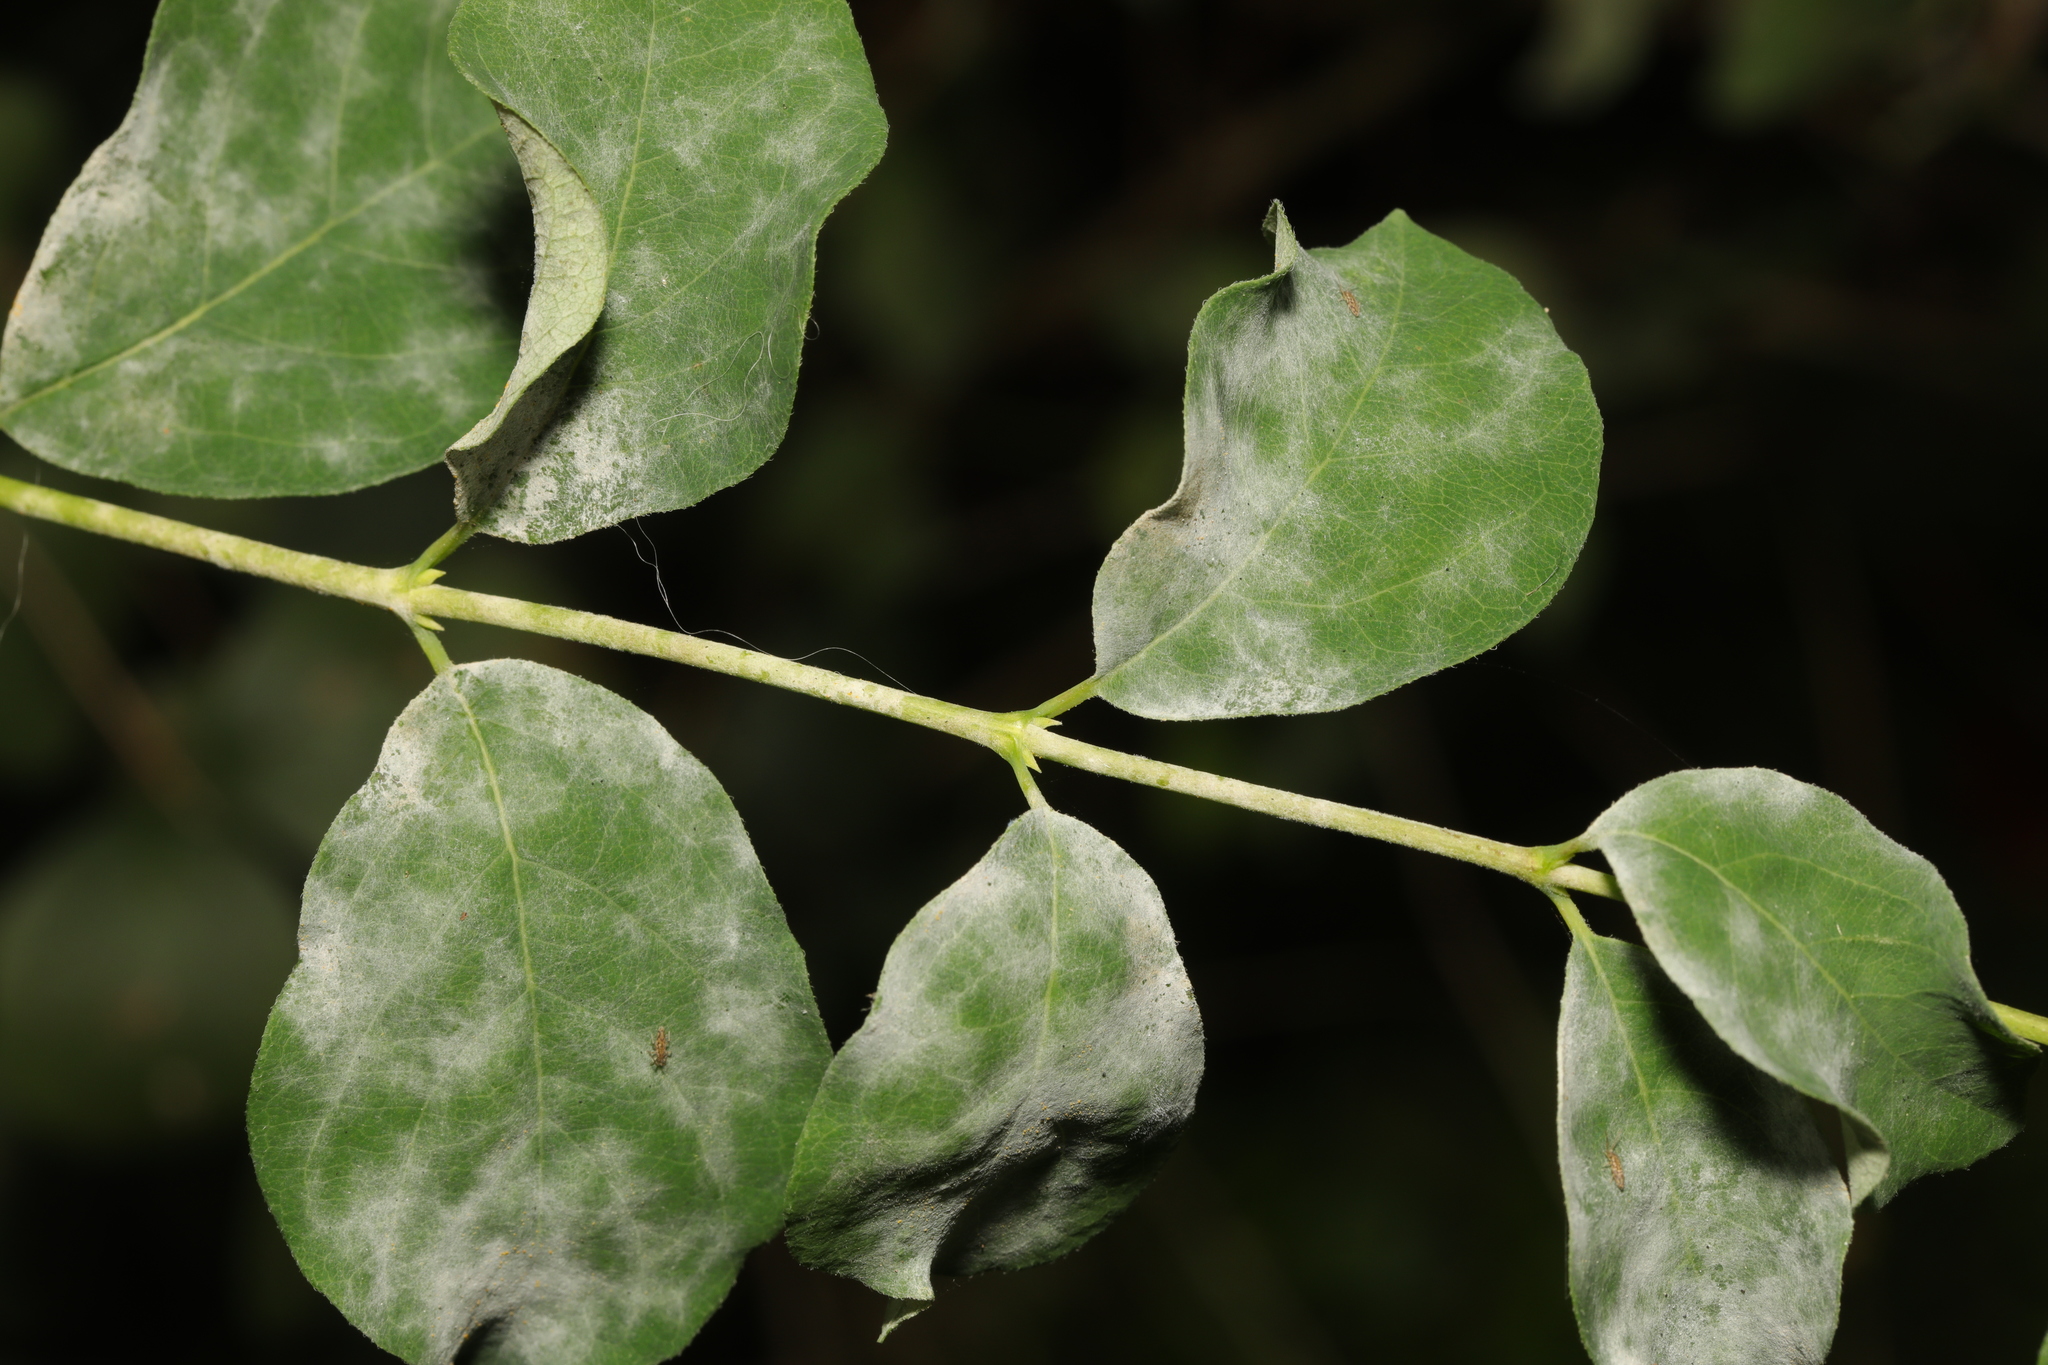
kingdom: Fungi
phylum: Ascomycota
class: Leotiomycetes
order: Helotiales
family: Erysiphaceae
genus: Erysiphe
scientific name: Erysiphe symphoricarpi
